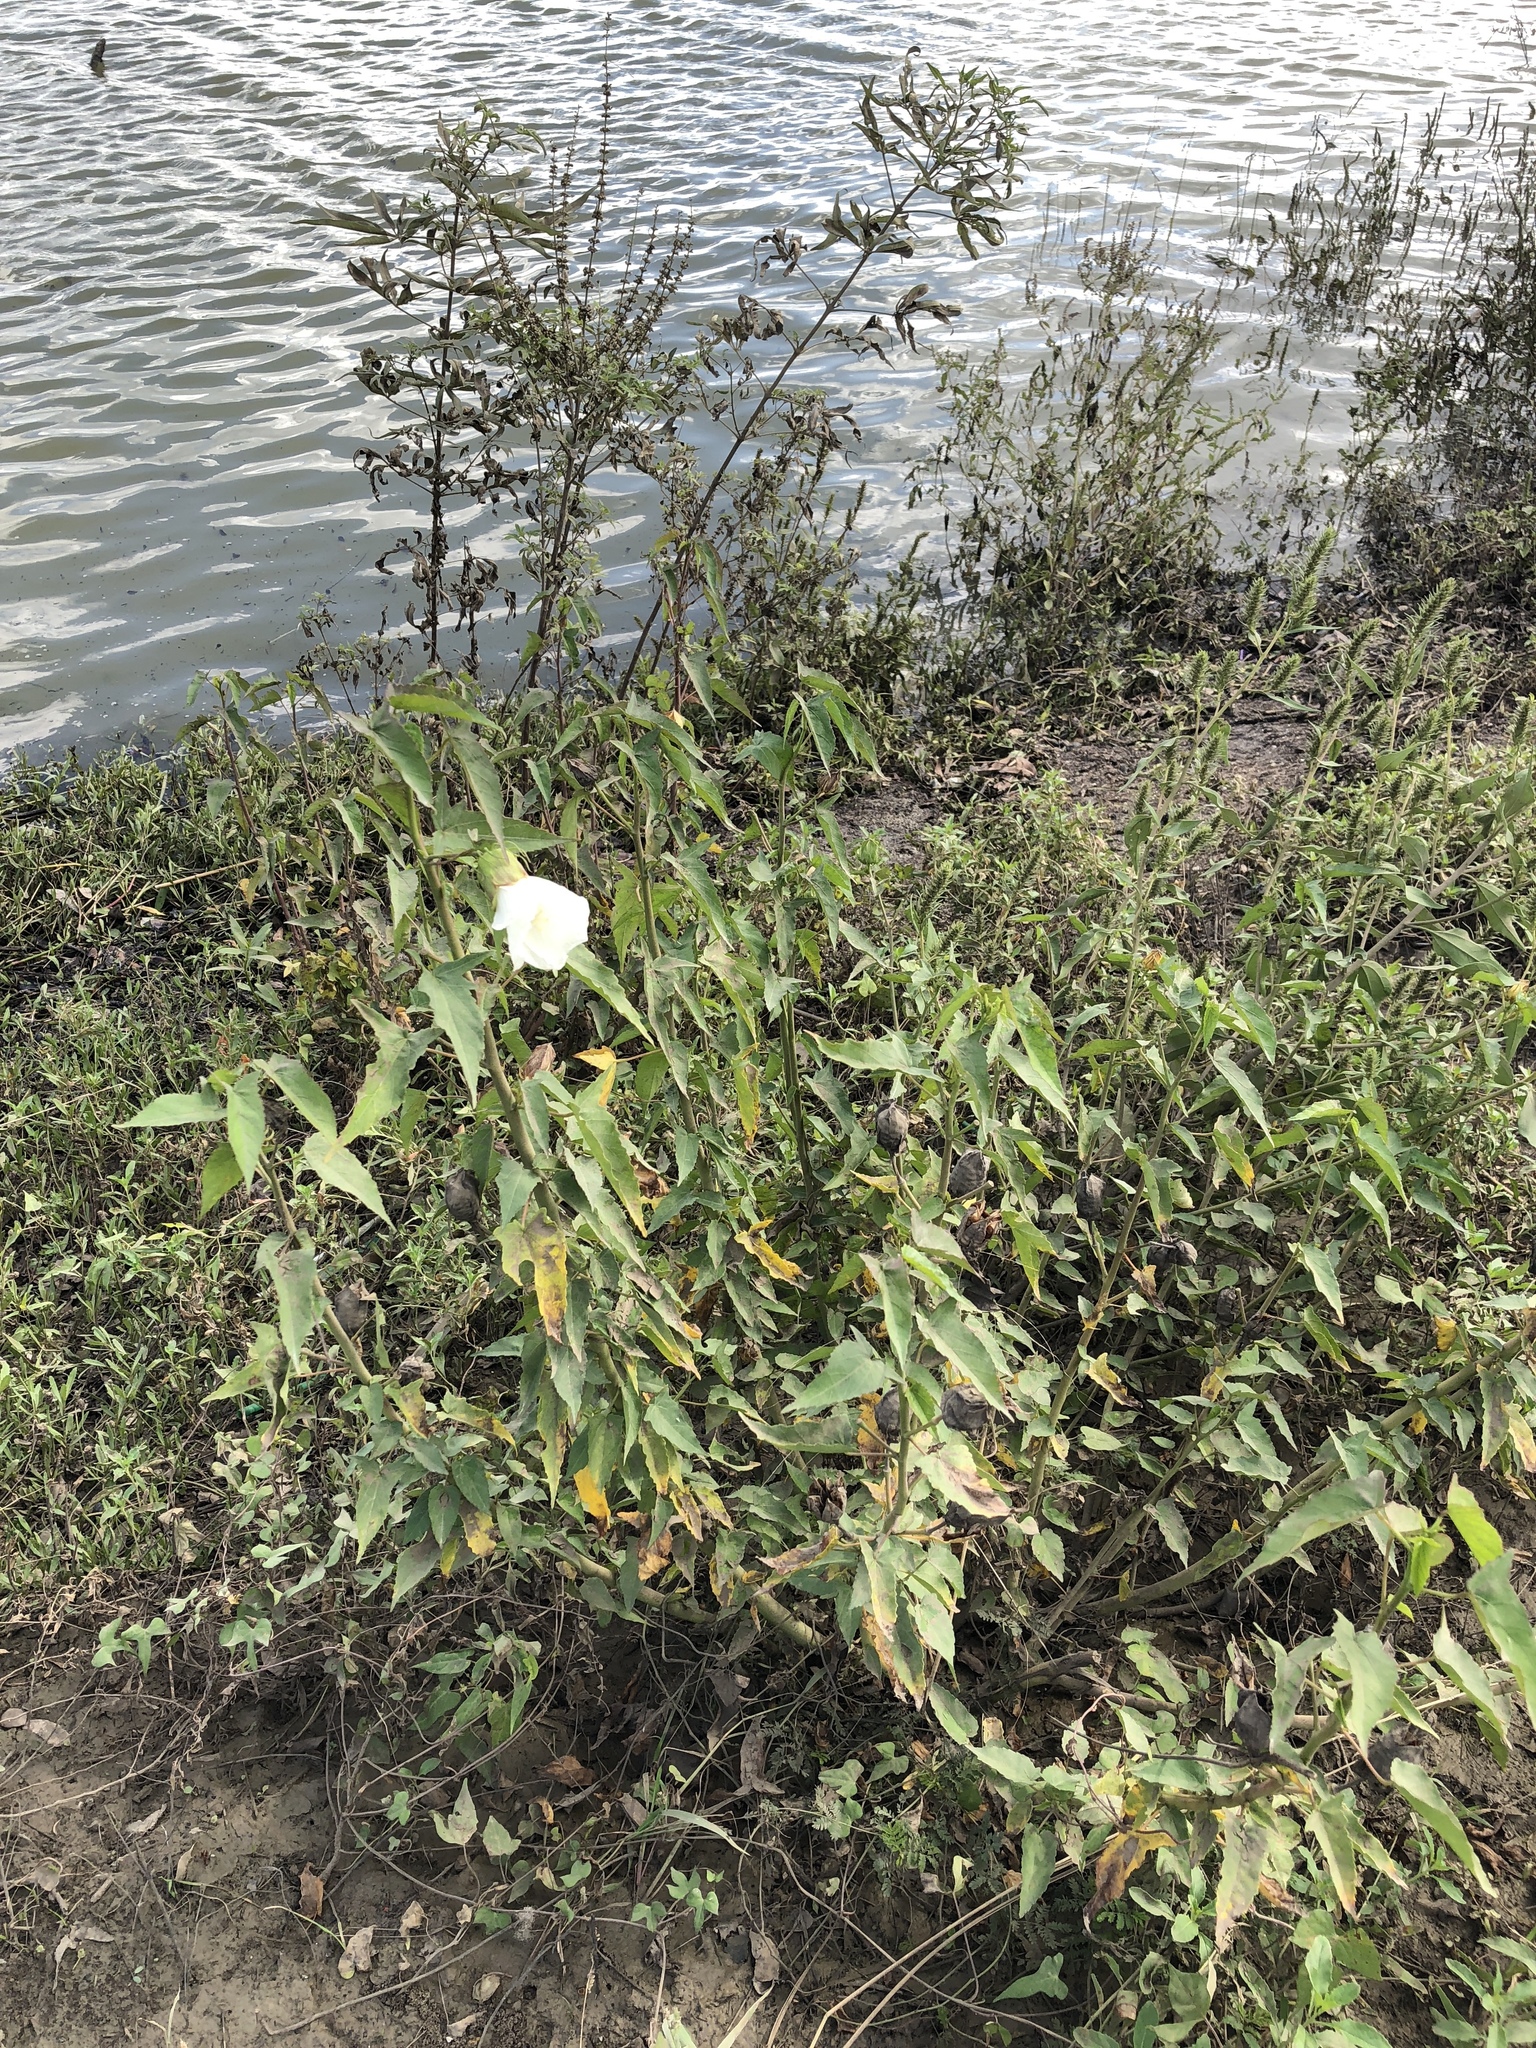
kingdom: Plantae
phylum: Tracheophyta
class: Magnoliopsida
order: Malvales
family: Malvaceae
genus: Hibiscus
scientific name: Hibiscus laevis
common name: Scarlet rose-mallow
